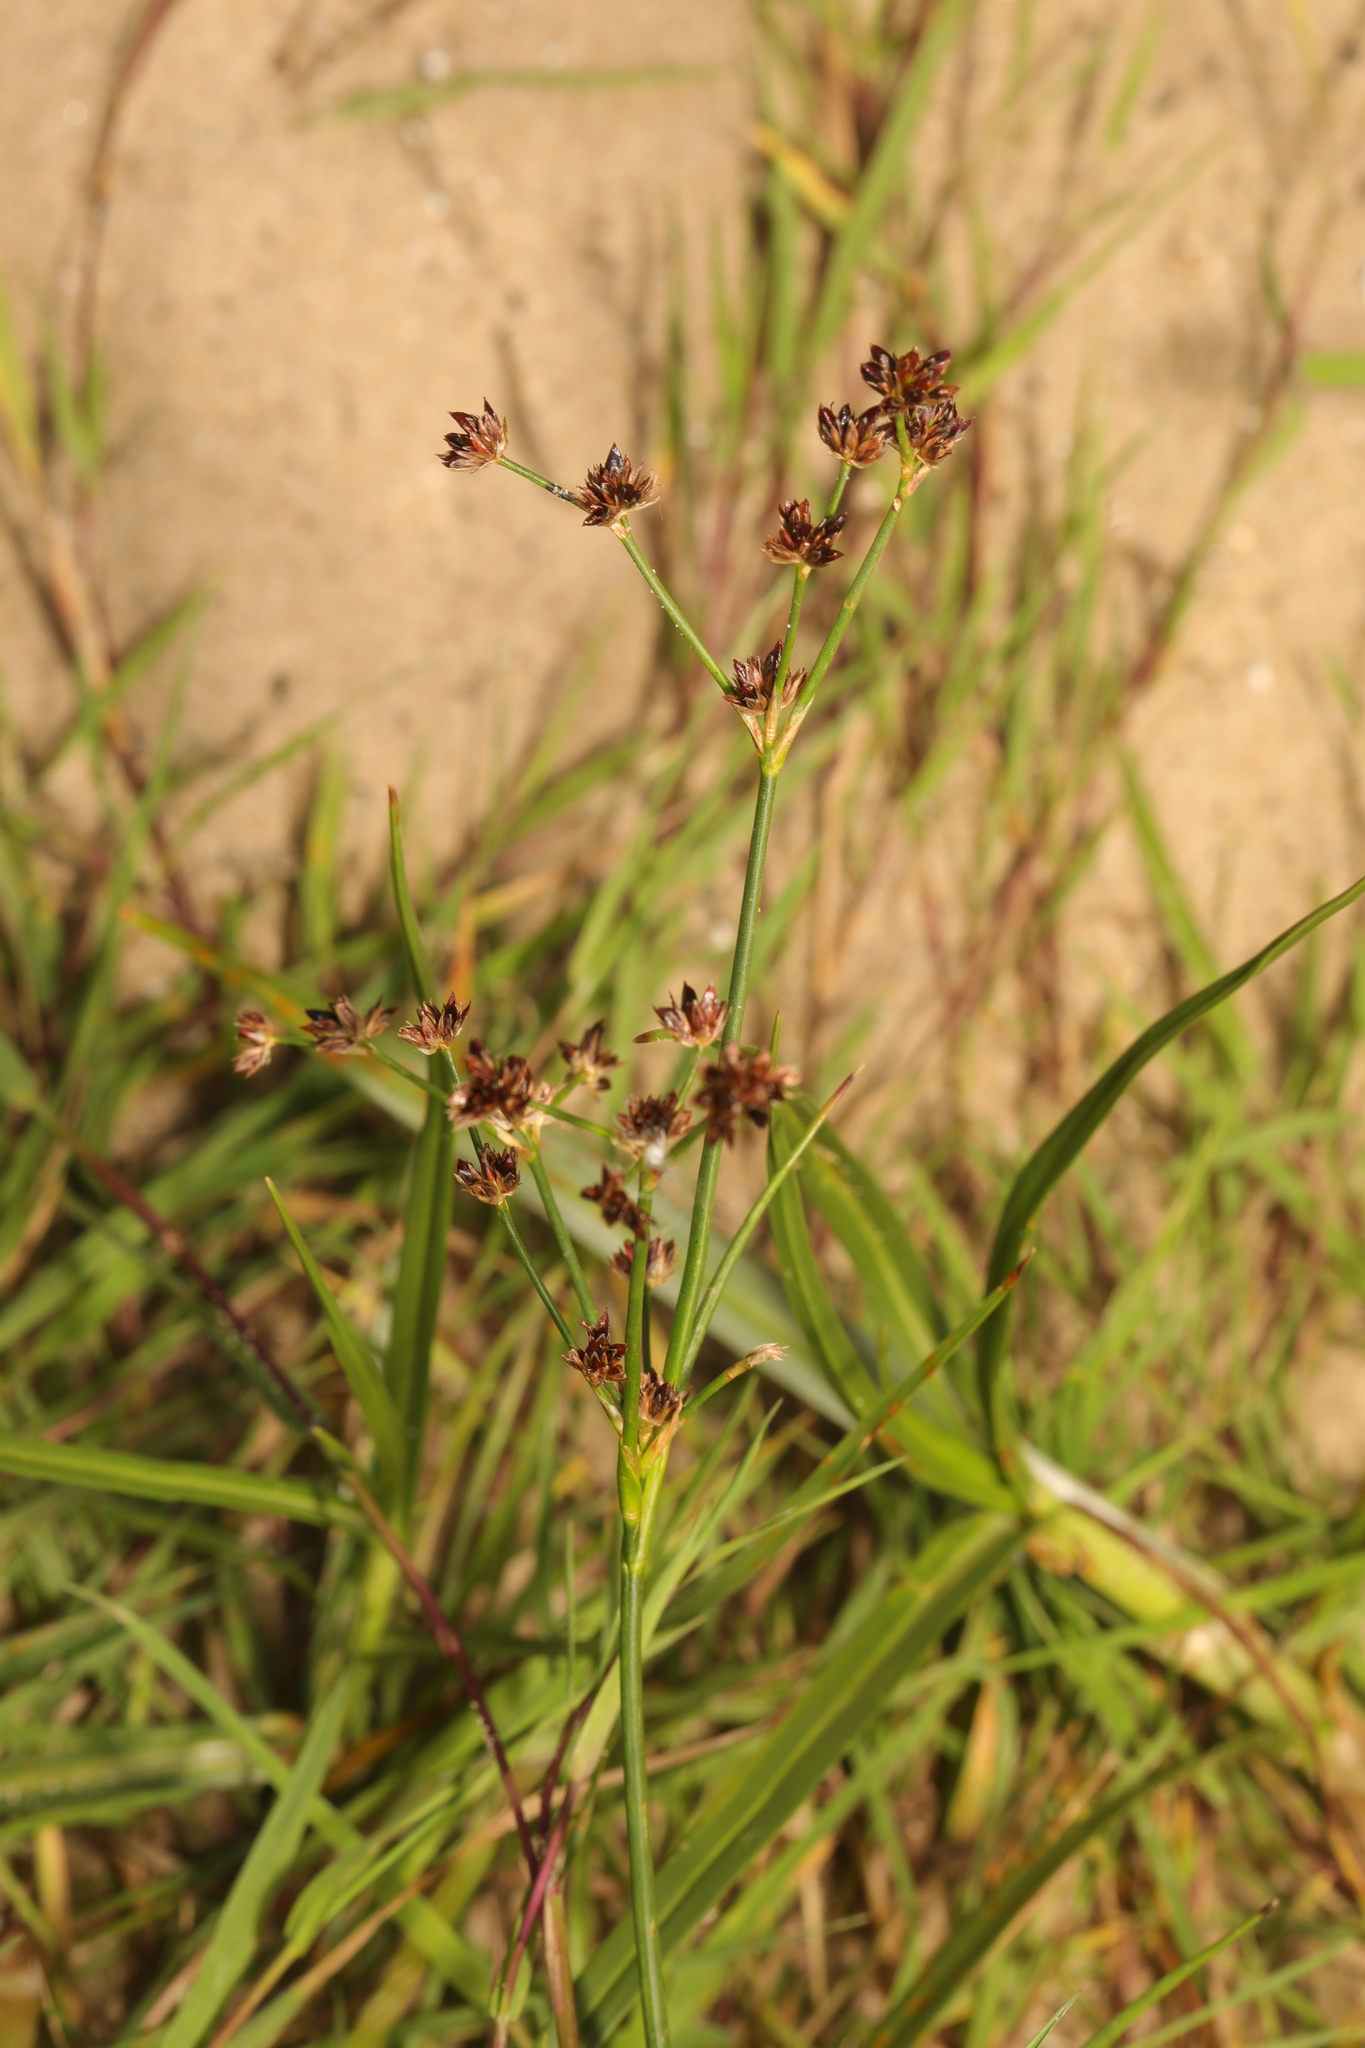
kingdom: Plantae
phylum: Tracheophyta
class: Liliopsida
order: Poales
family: Juncaceae
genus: Juncus
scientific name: Juncus articulatus
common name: Jointed rush
